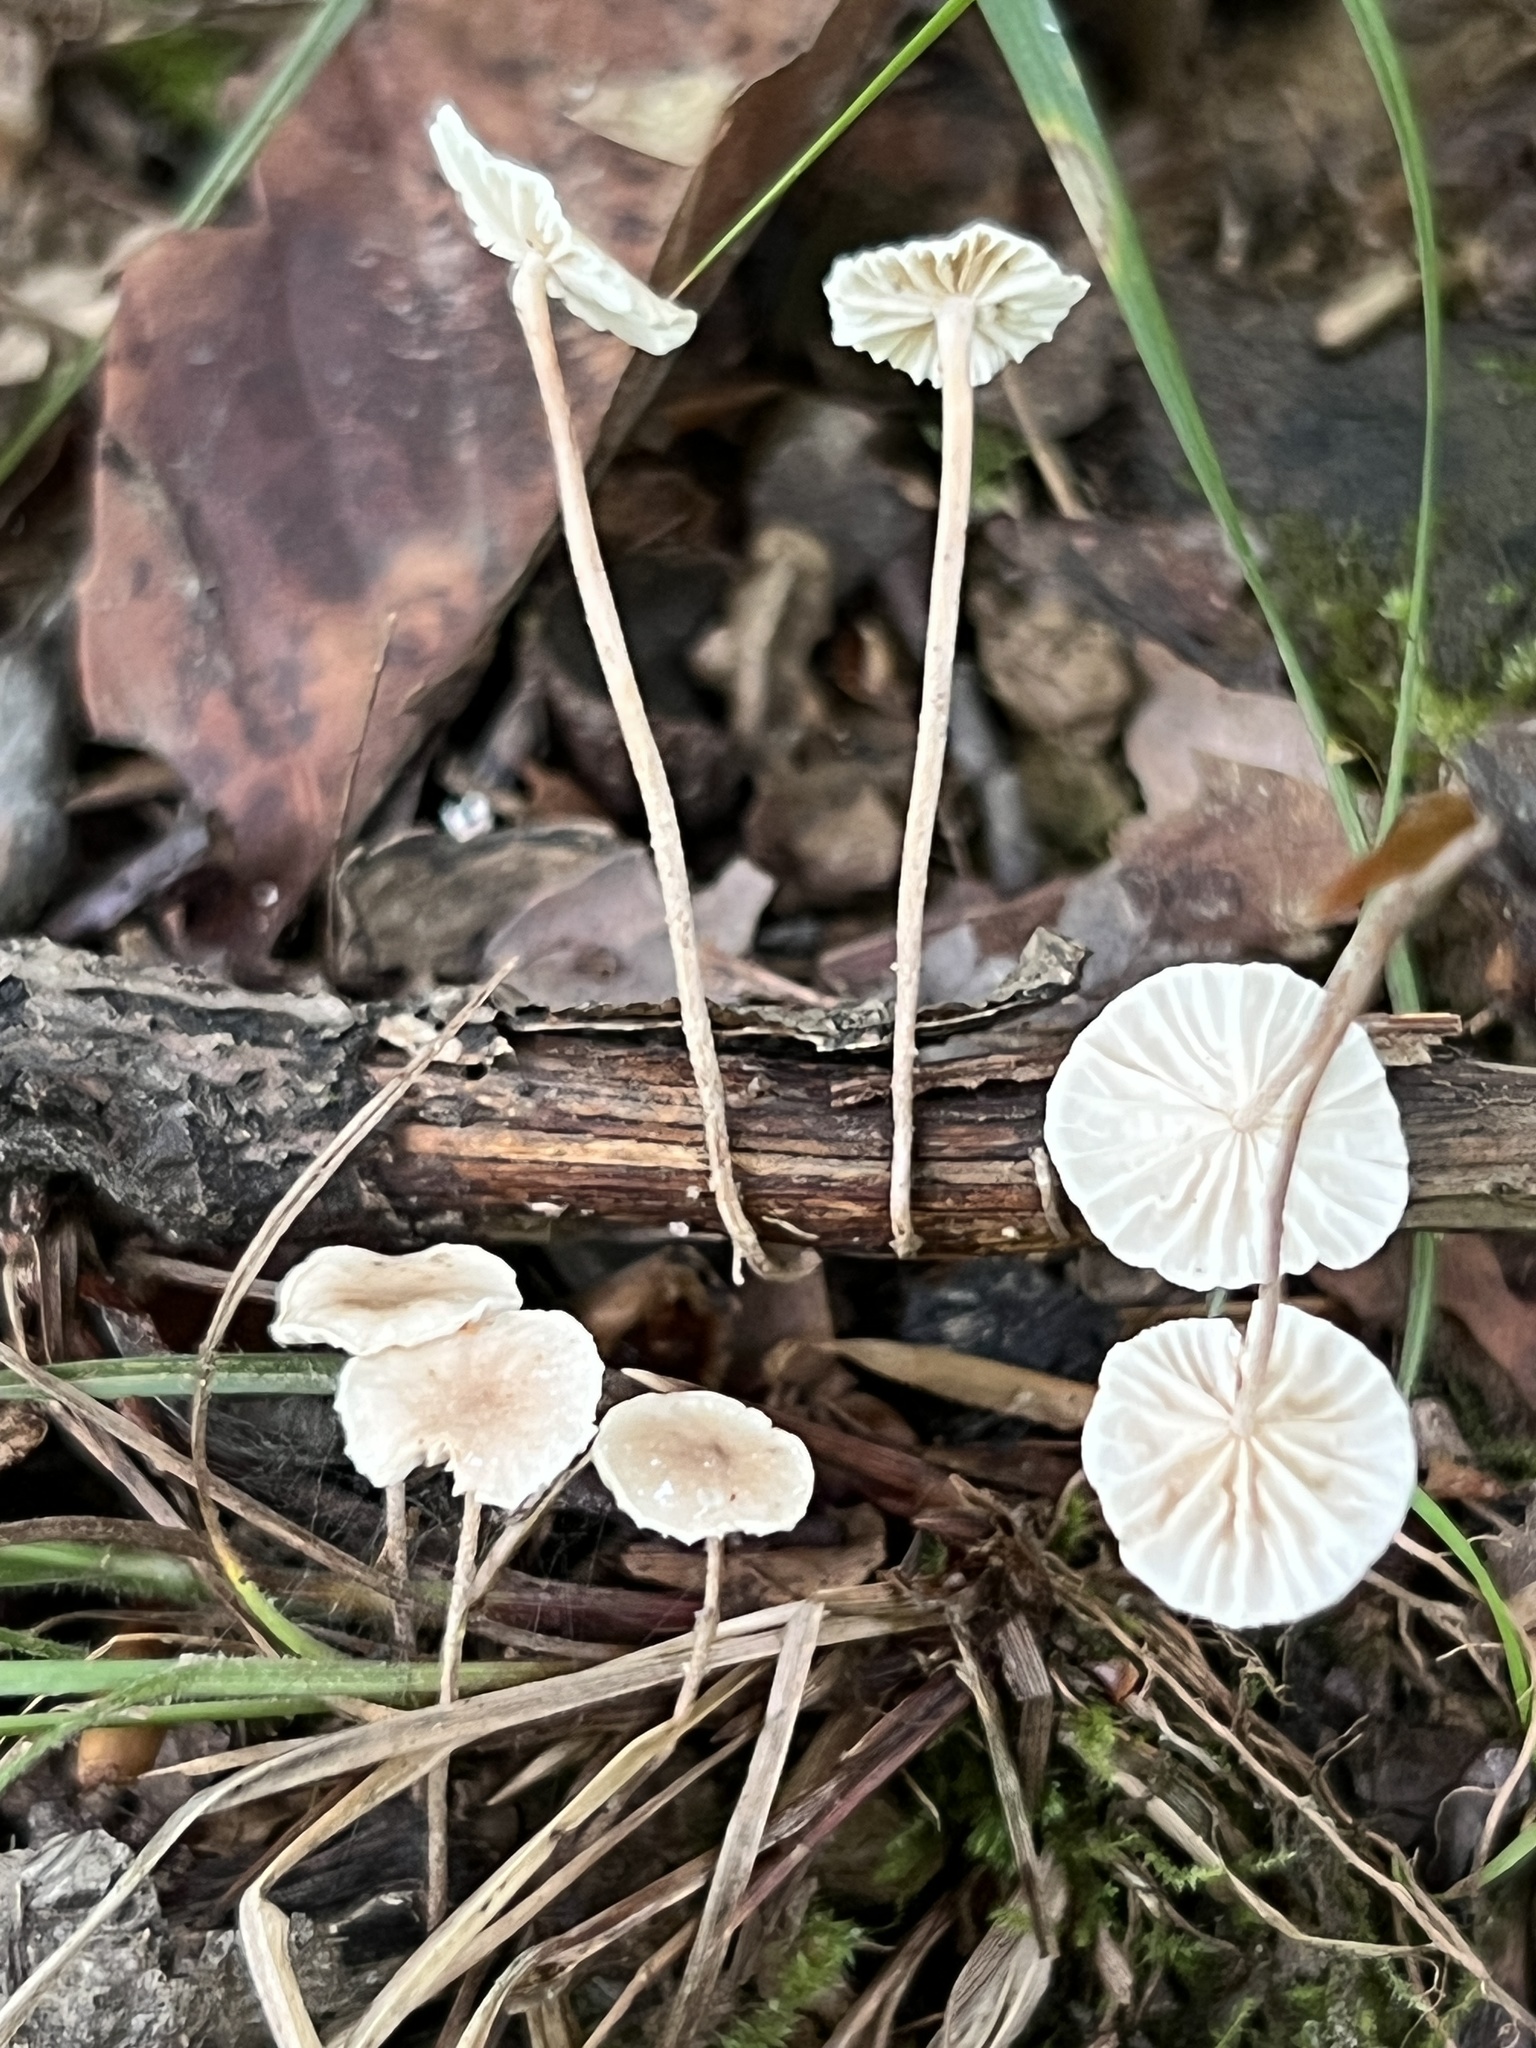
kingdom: Fungi
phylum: Basidiomycota
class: Agaricomycetes
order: Agaricales
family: Omphalotaceae
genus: Mycetinis
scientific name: Mycetinis opacus
